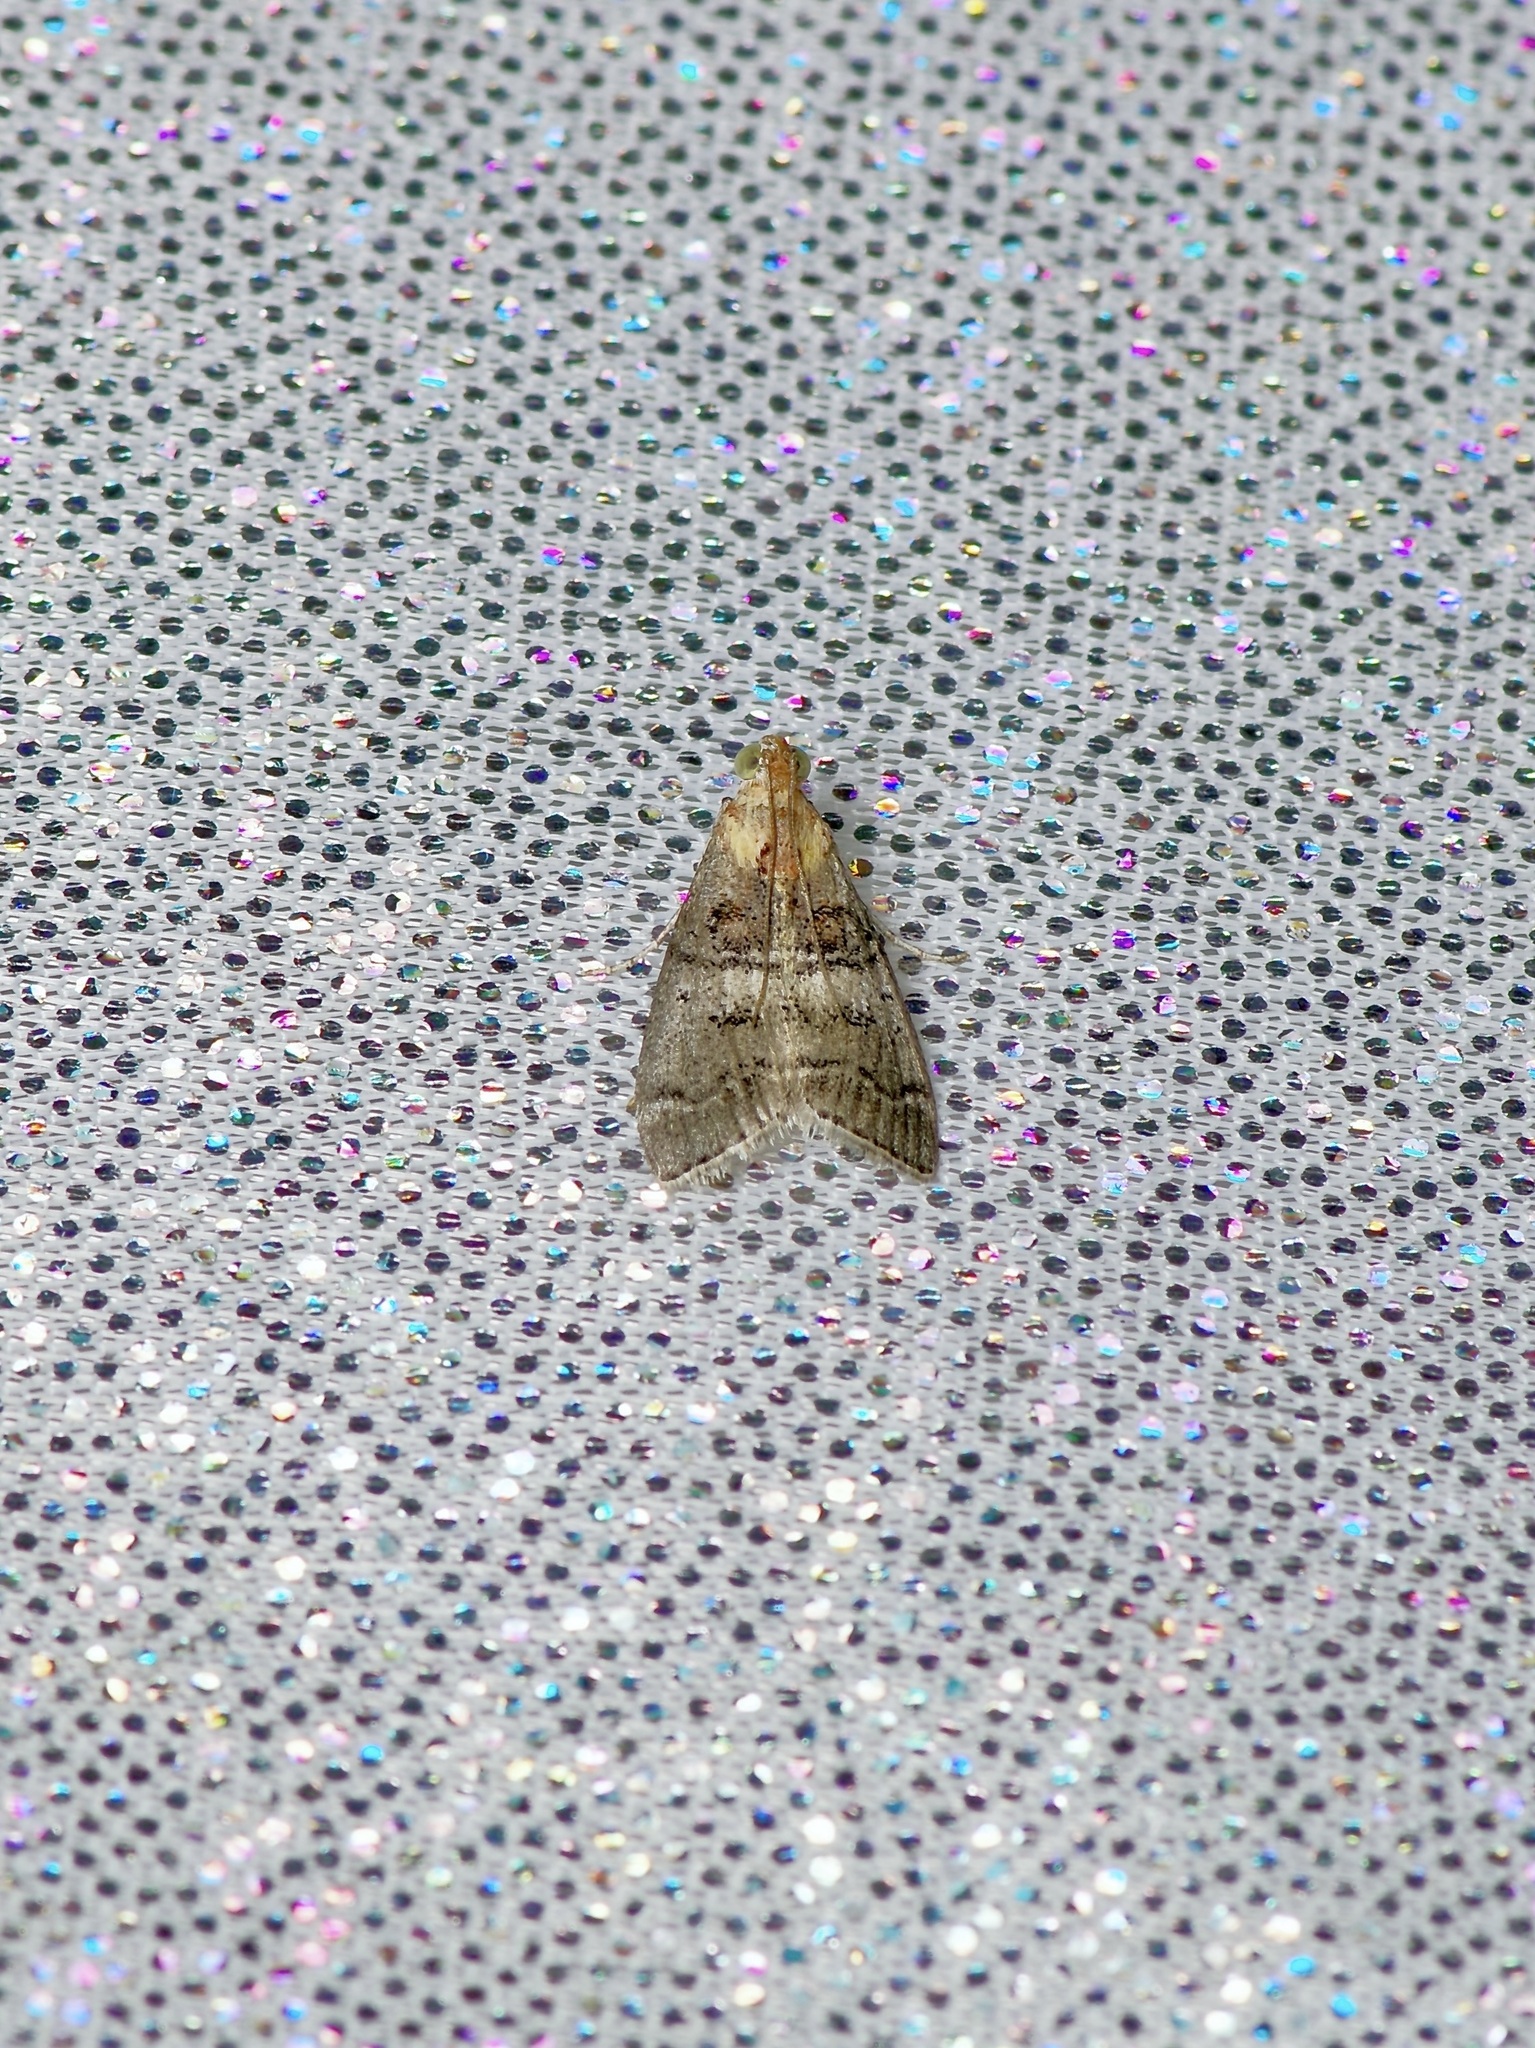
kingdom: Animalia
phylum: Arthropoda
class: Insecta
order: Lepidoptera
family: Pyralidae
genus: Pococera
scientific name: Pococera maritimalis
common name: Gray-banded pococera moth
